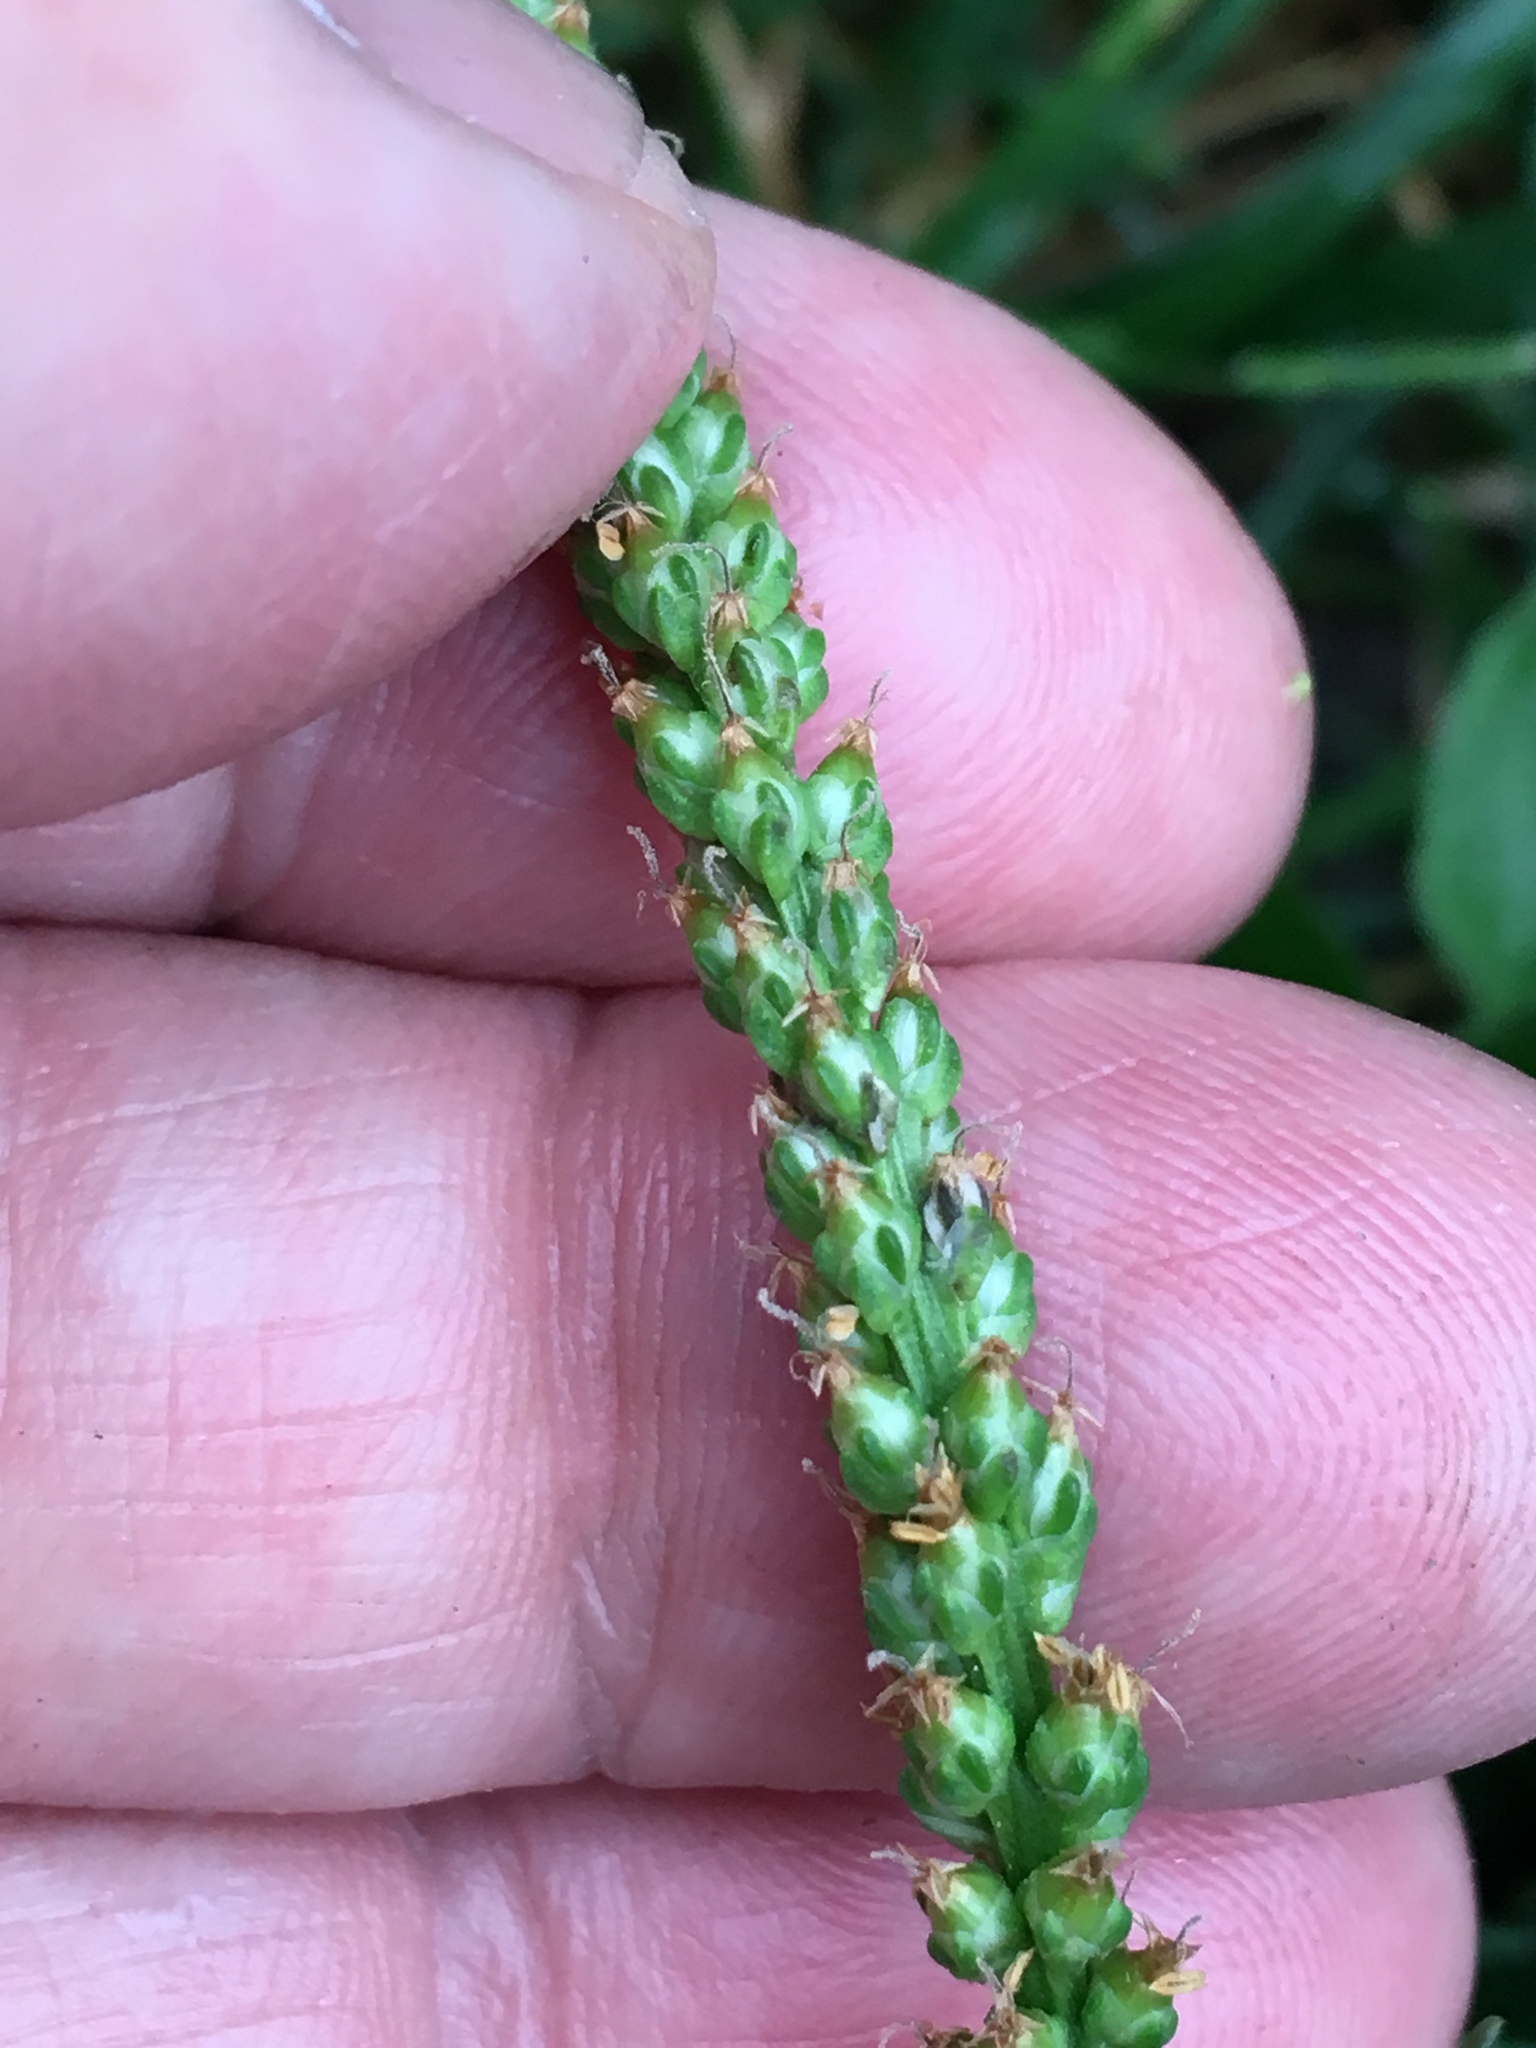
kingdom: Plantae
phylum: Tracheophyta
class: Magnoliopsida
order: Lamiales
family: Plantaginaceae
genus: Plantago
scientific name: Plantago major
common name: Common plantain
